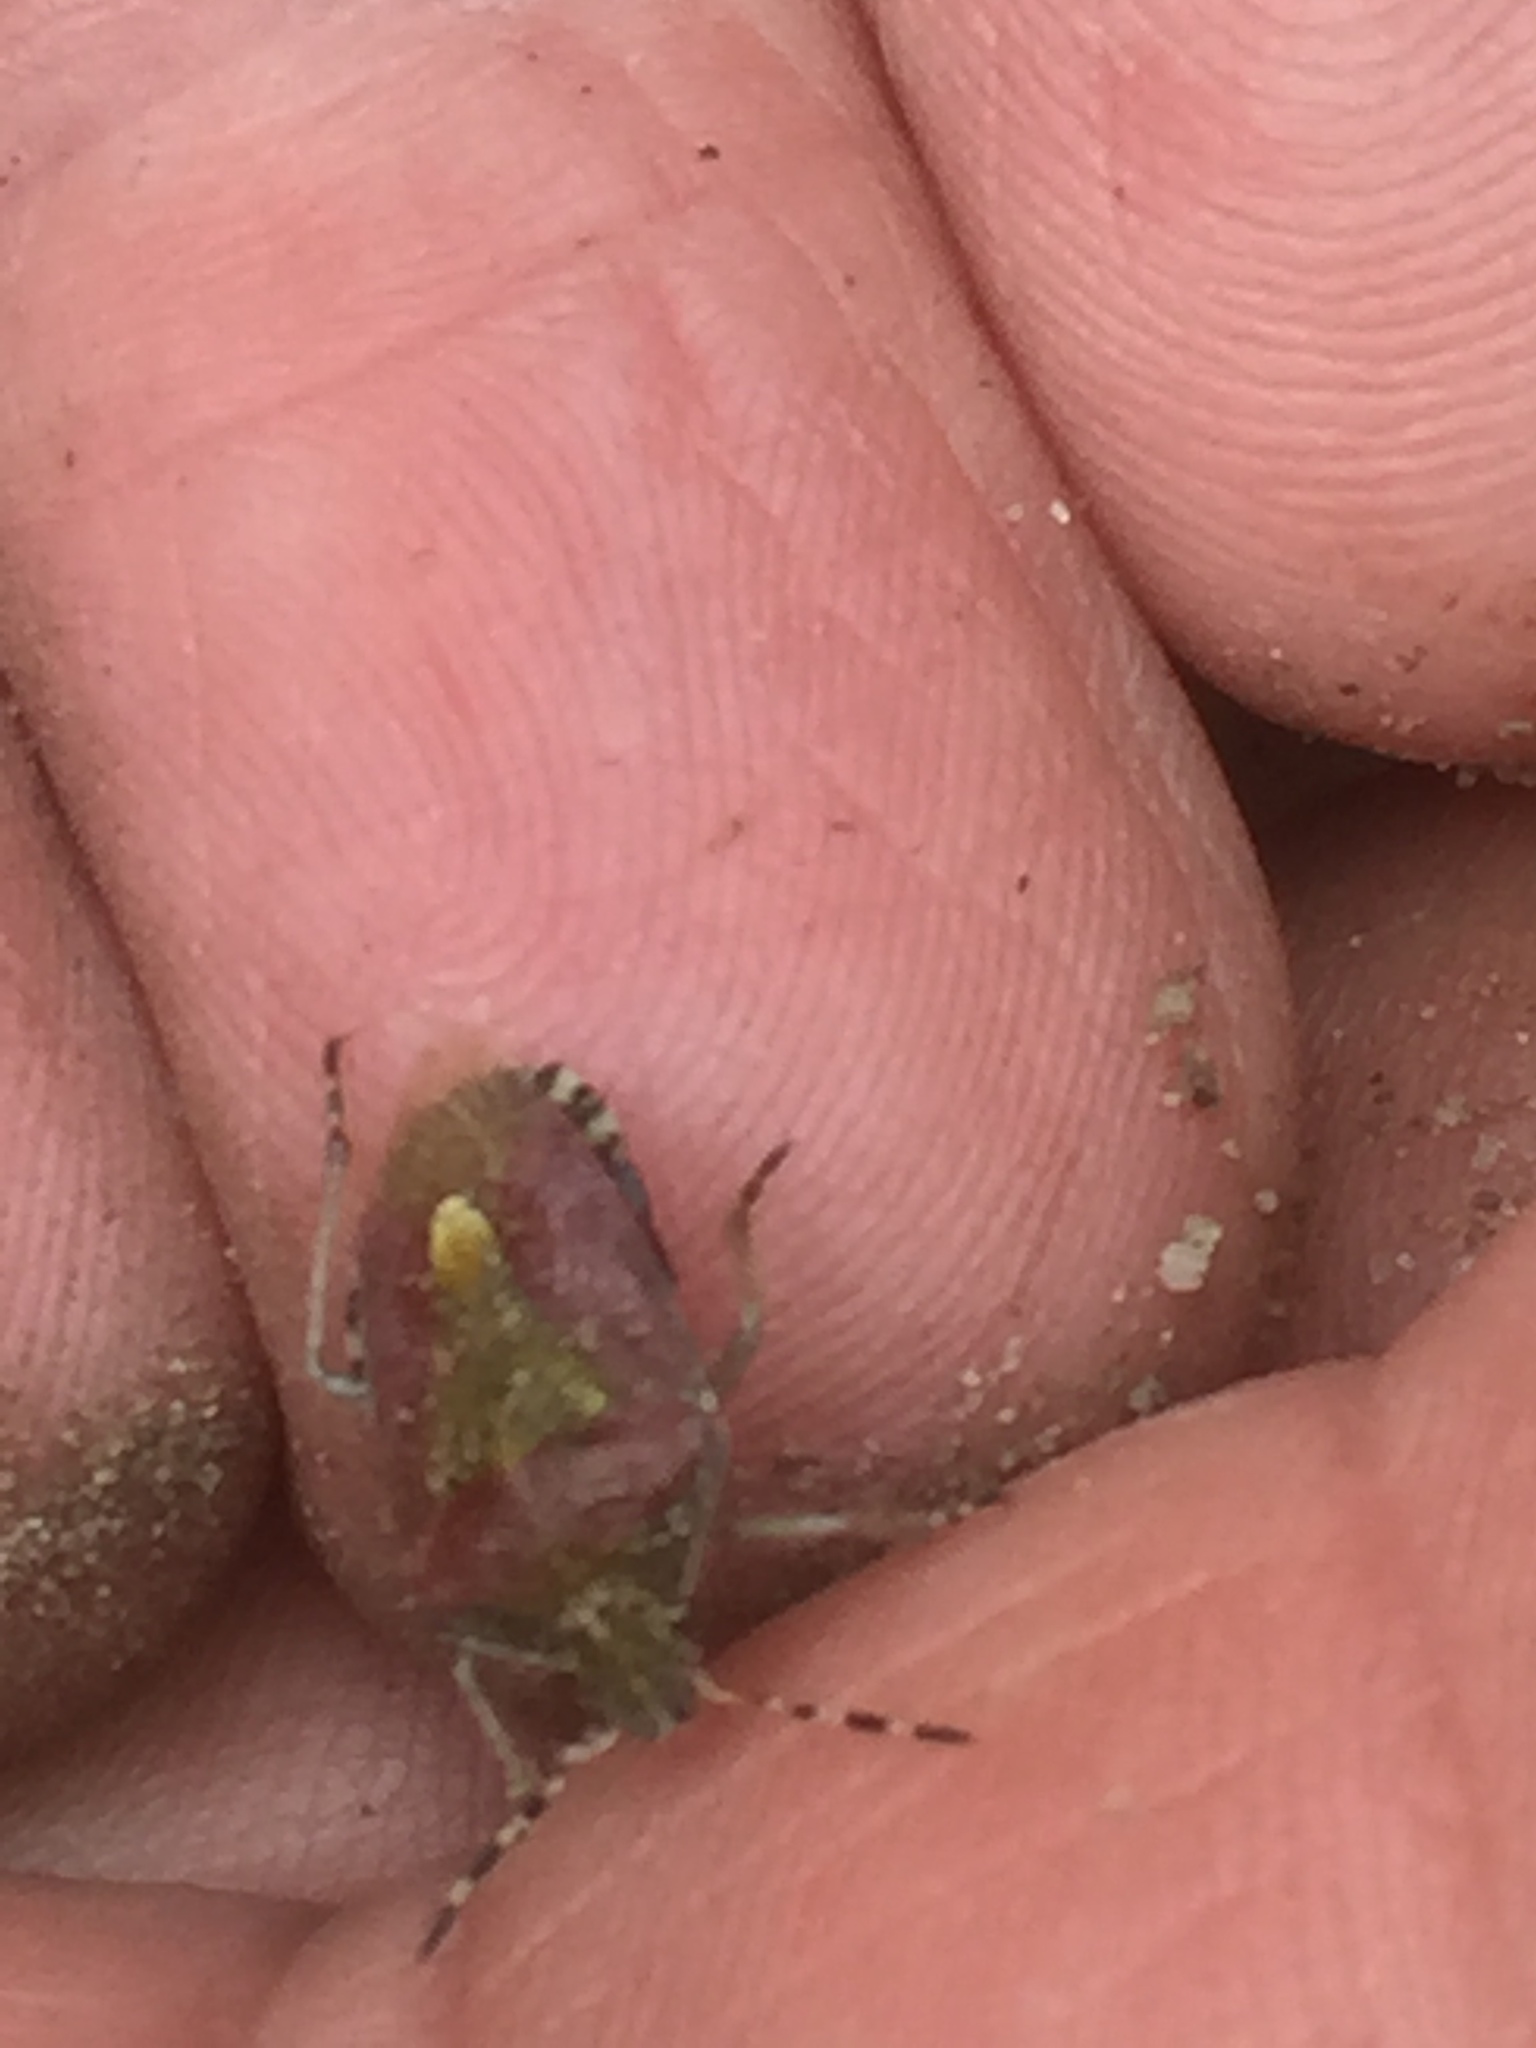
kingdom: Animalia
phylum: Arthropoda
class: Insecta
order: Hemiptera
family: Pentatomidae
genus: Dolycoris
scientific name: Dolycoris baccarum
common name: Sloe bug
